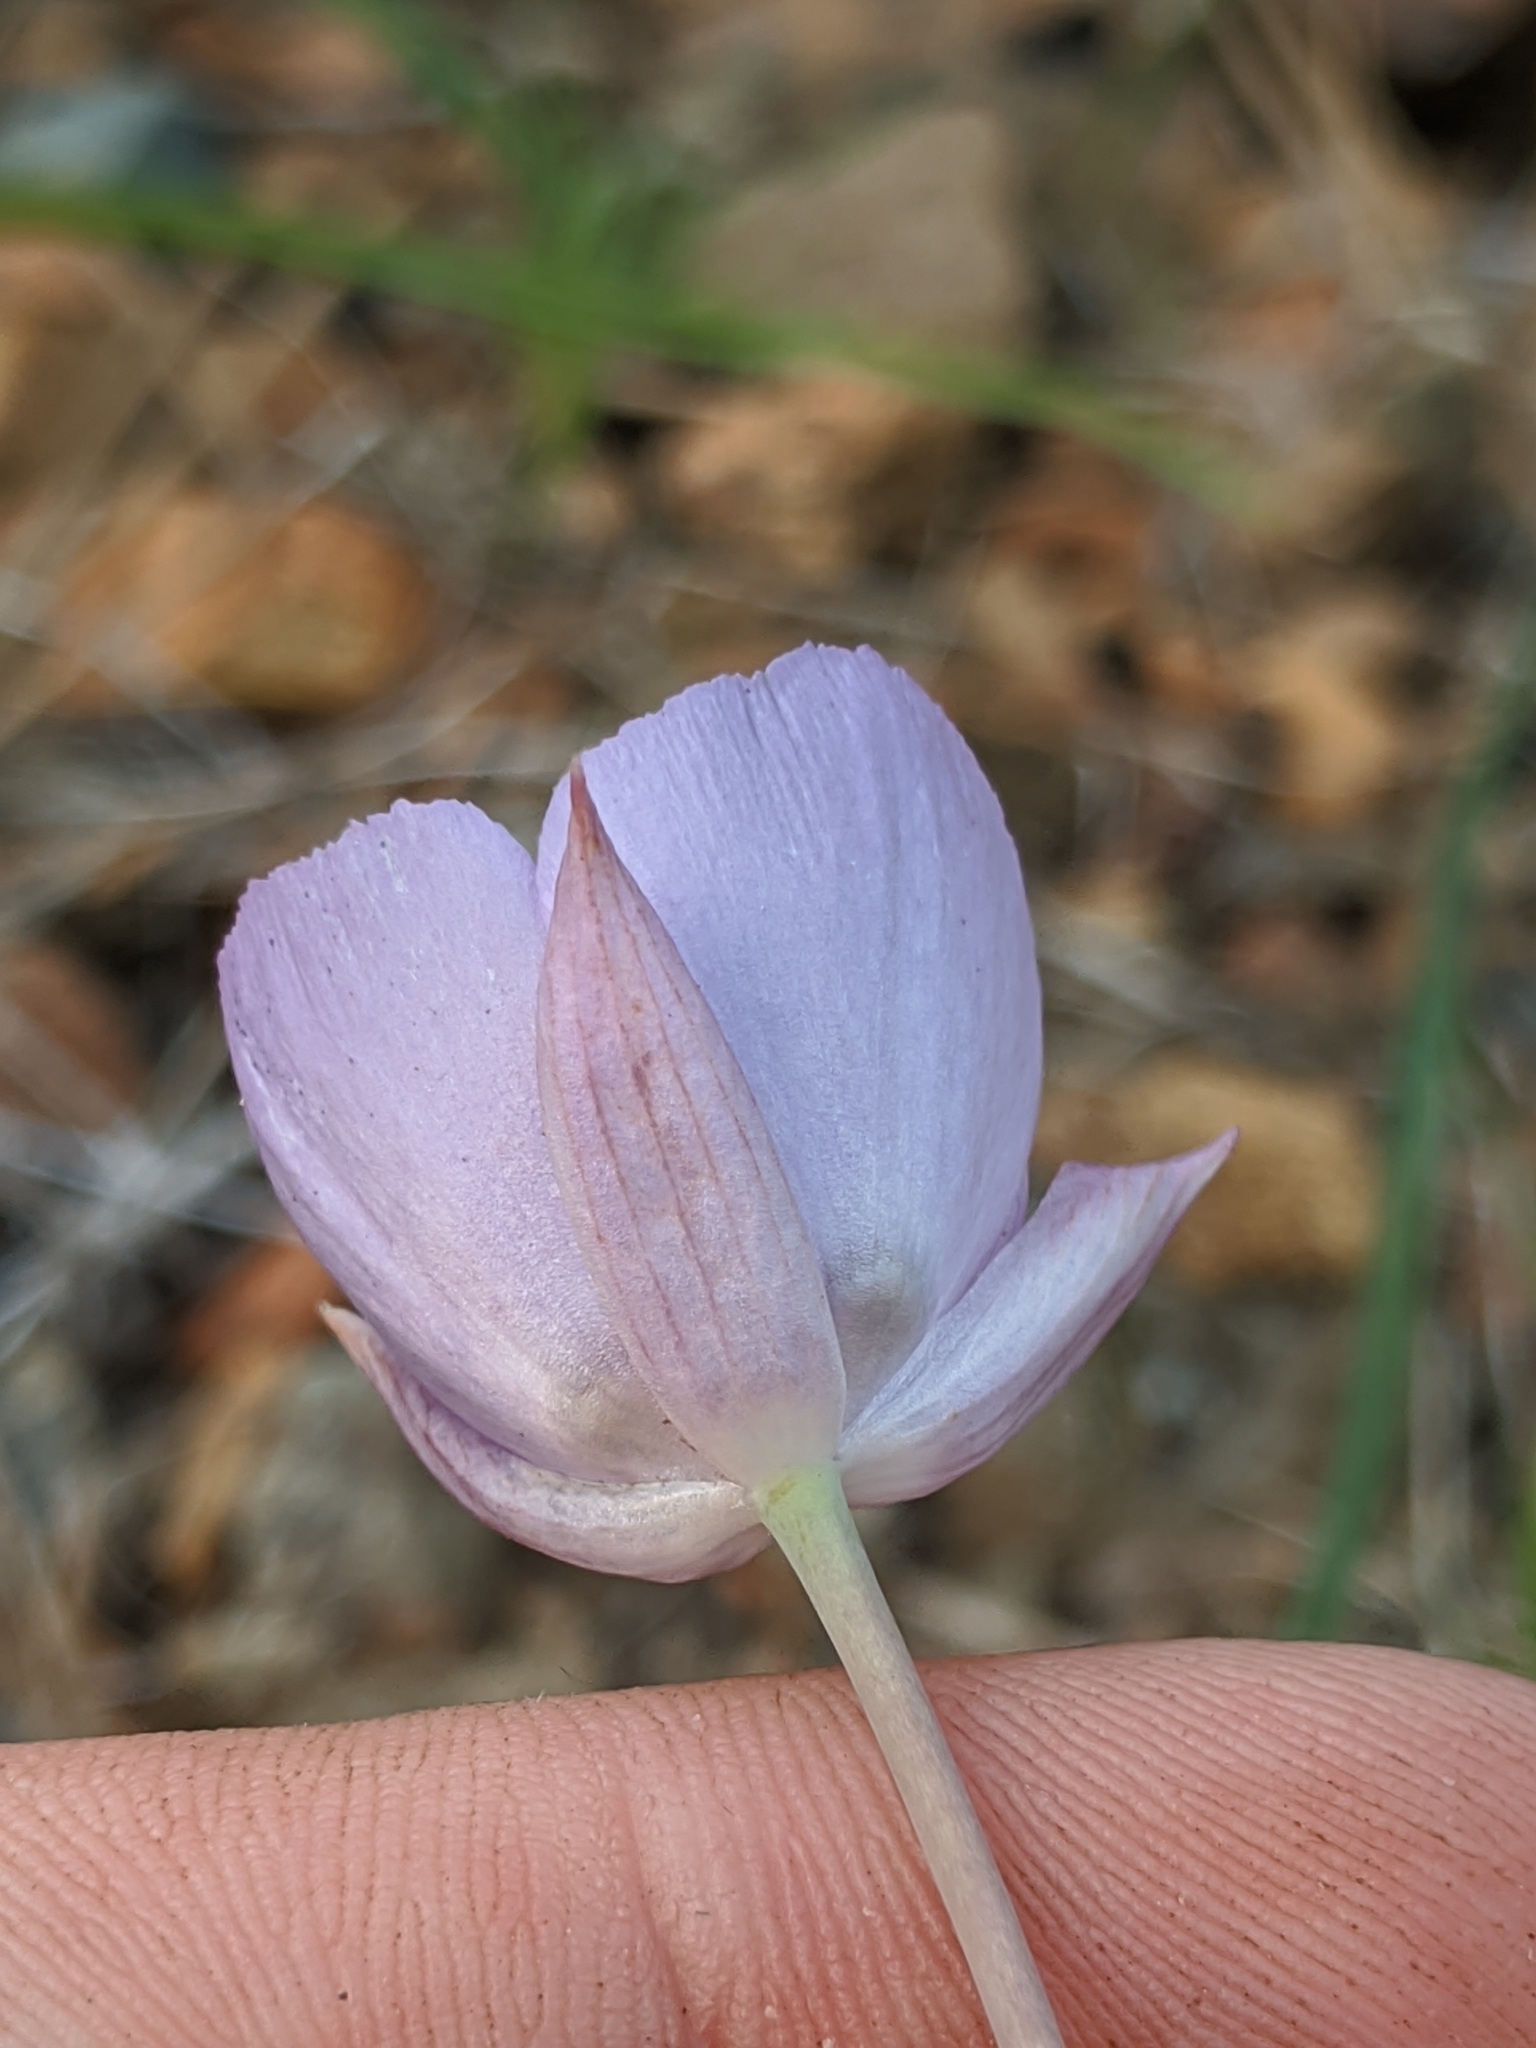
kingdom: Plantae
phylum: Tracheophyta
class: Liliopsida
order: Liliales
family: Liliaceae
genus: Calochortus
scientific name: Calochortus nudus
